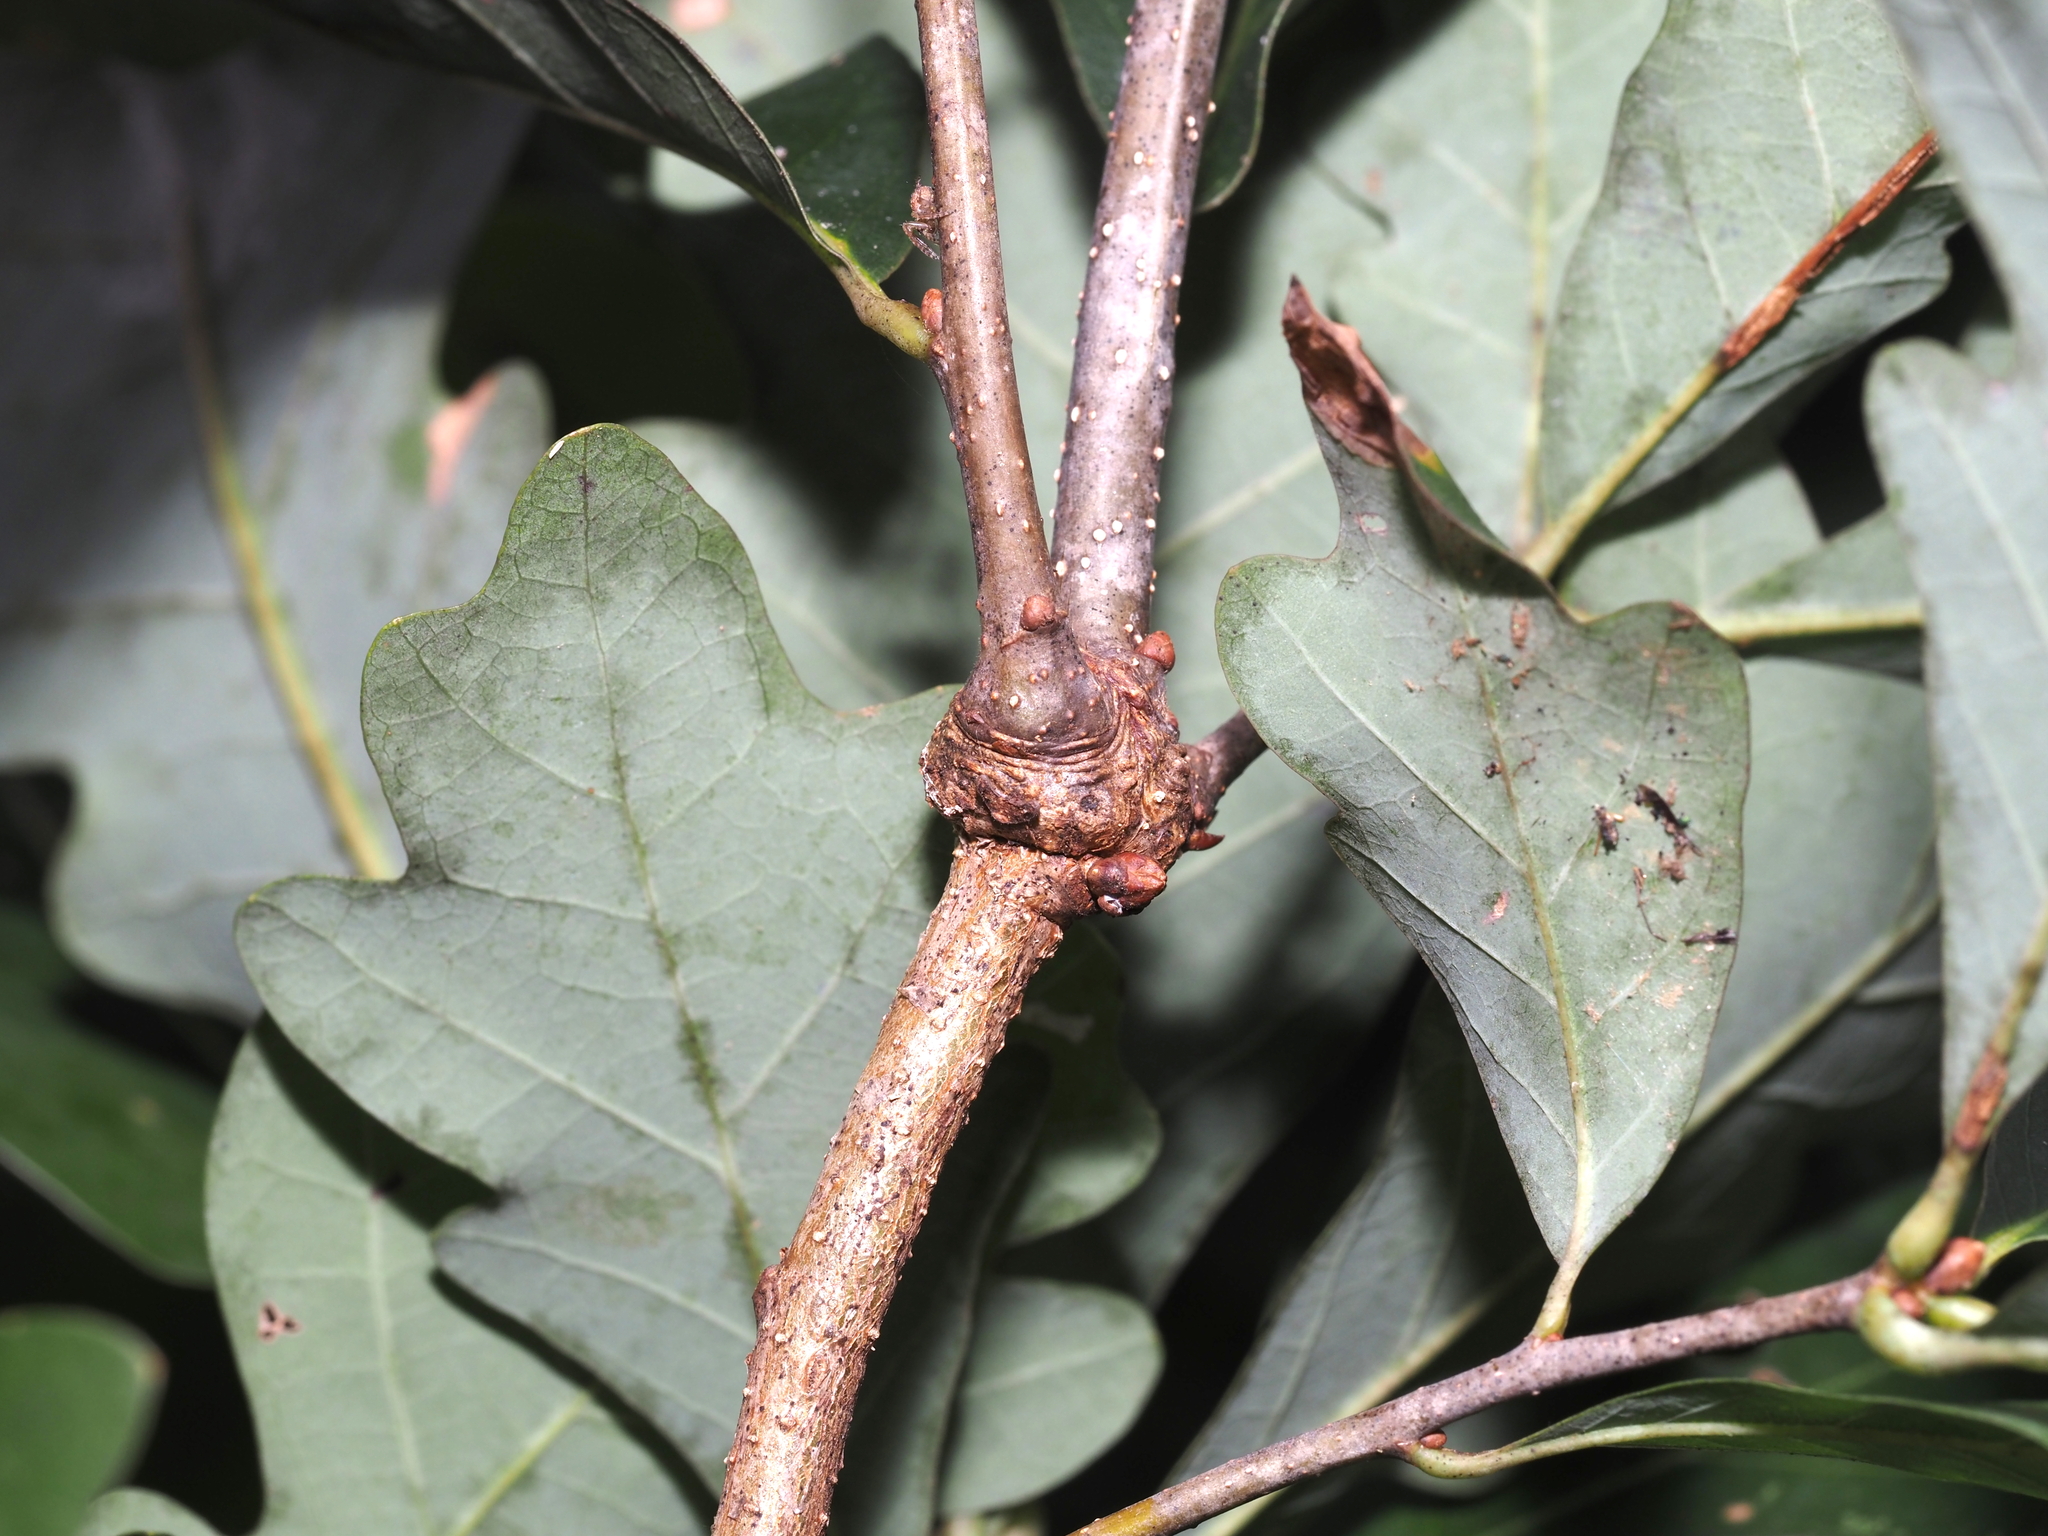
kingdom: Animalia
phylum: Arthropoda
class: Insecta
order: Hymenoptera
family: Cynipidae
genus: Loxaulus
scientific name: Loxaulus
